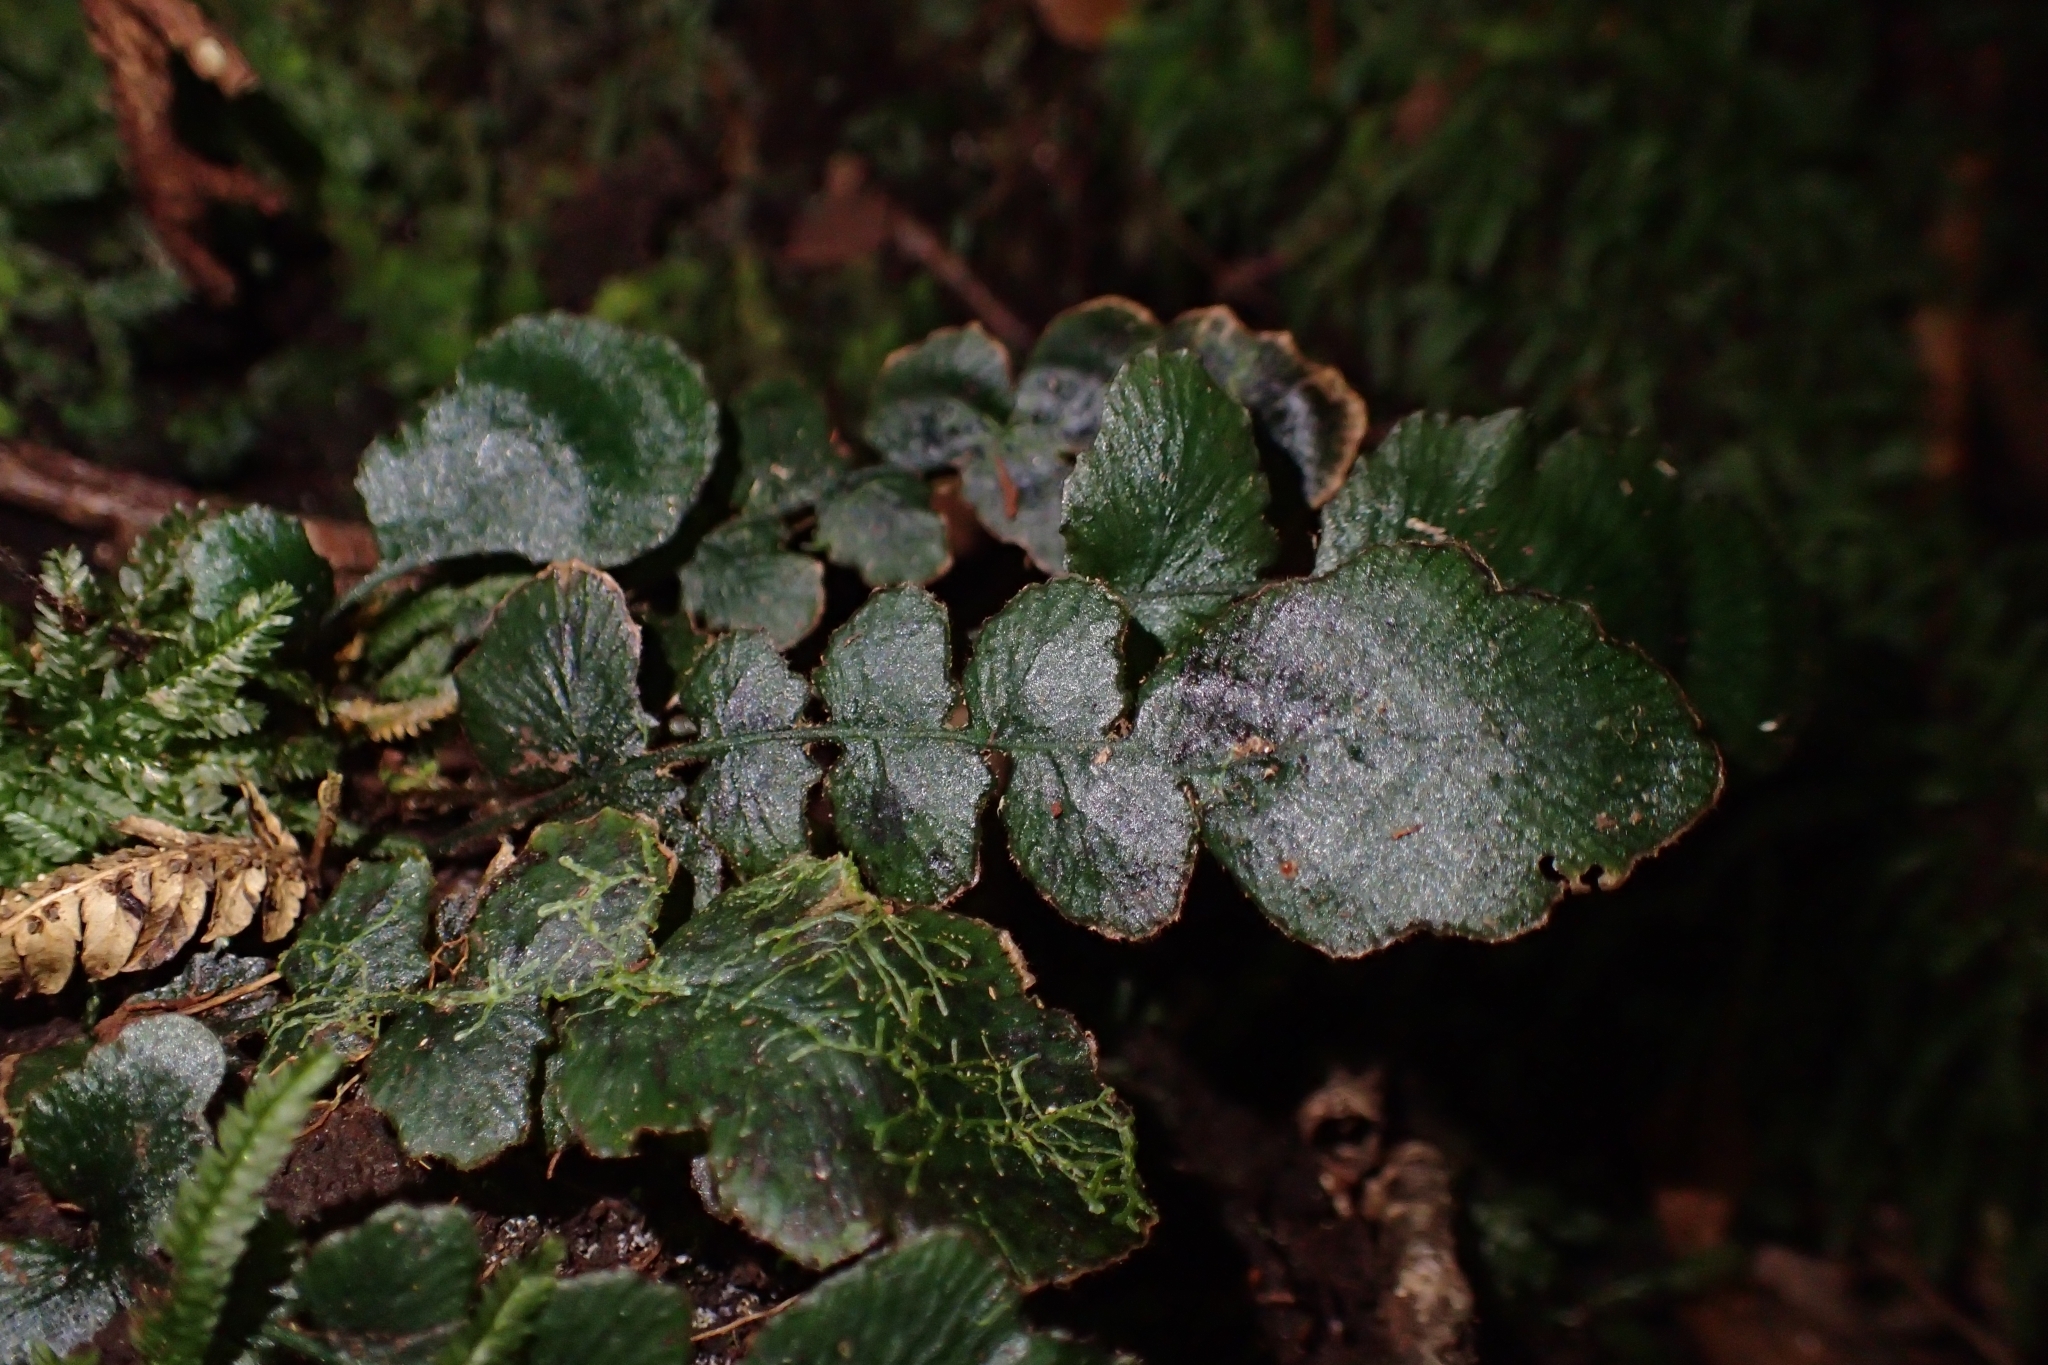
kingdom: Plantae
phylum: Tracheophyta
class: Polypodiopsida
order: Polypodiales
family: Blechnaceae
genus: Cranfillia
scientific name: Cranfillia nigra
